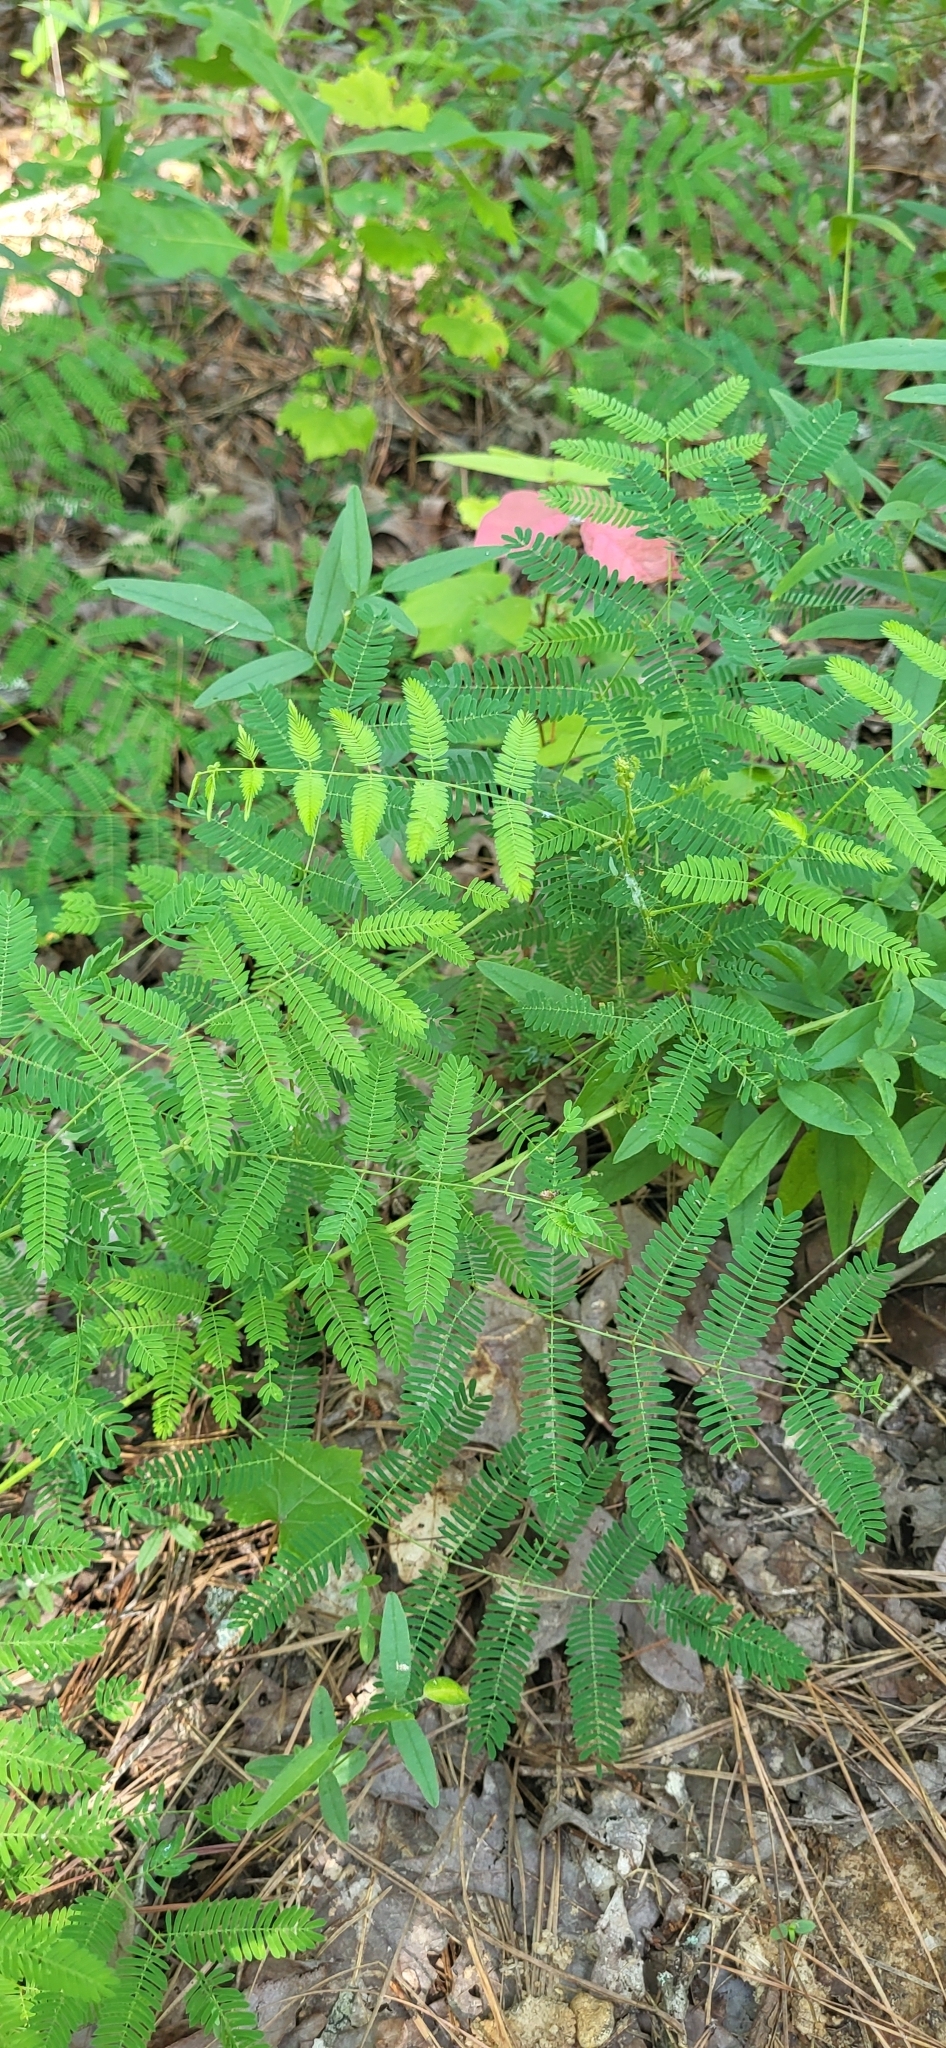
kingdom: Plantae
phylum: Tracheophyta
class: Magnoliopsida
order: Fabales
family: Fabaceae
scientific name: Fabaceae
